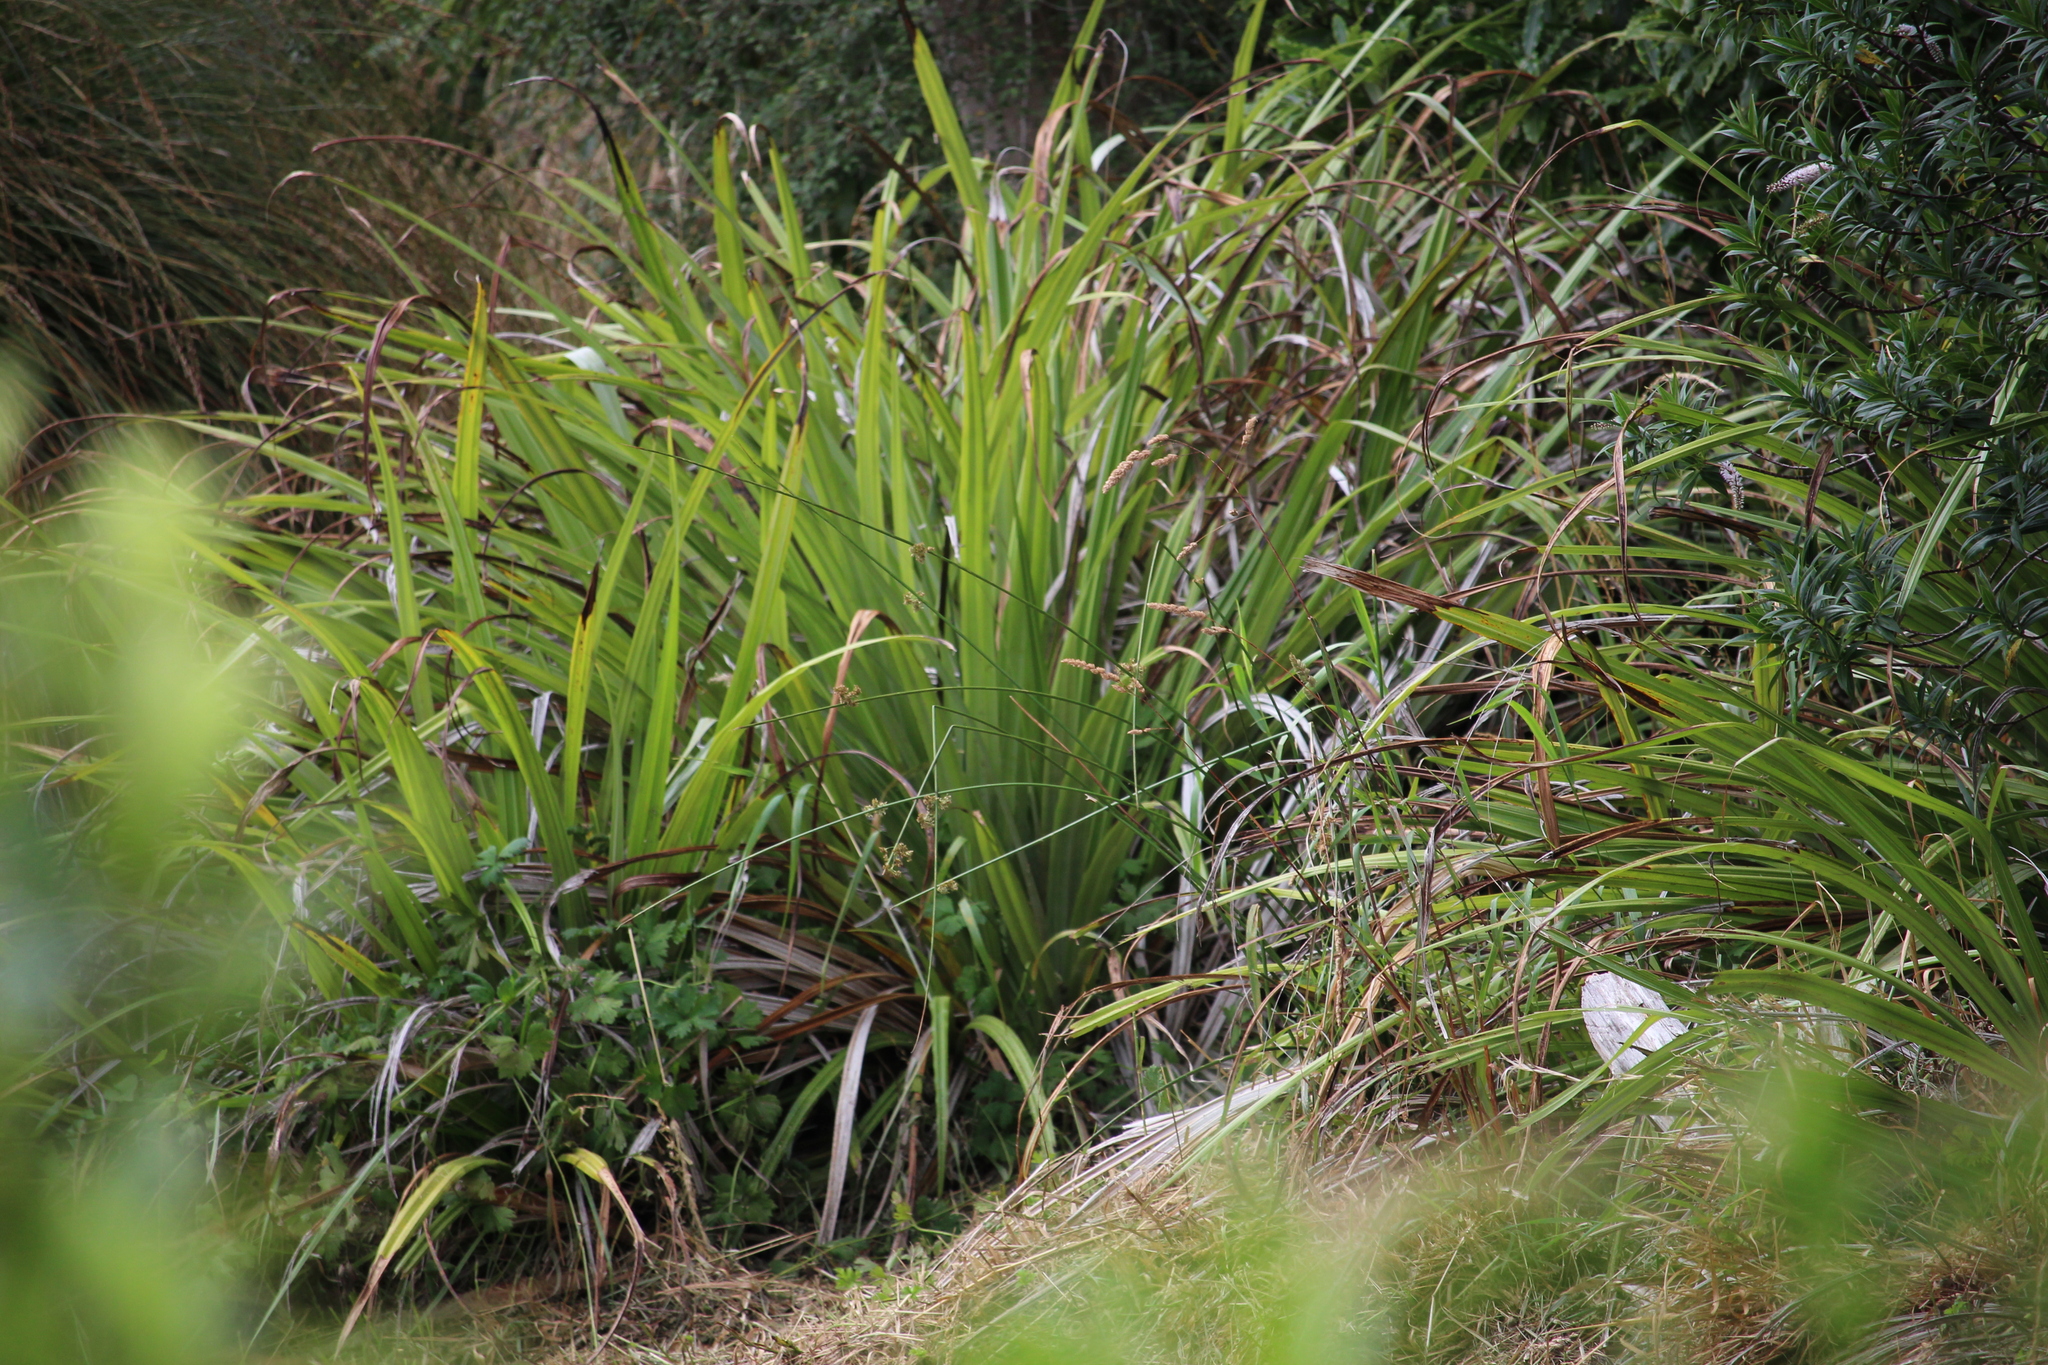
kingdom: Plantae
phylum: Tracheophyta
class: Liliopsida
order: Asparagales
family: Asteliaceae
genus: Astelia
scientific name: Astelia fragrans
